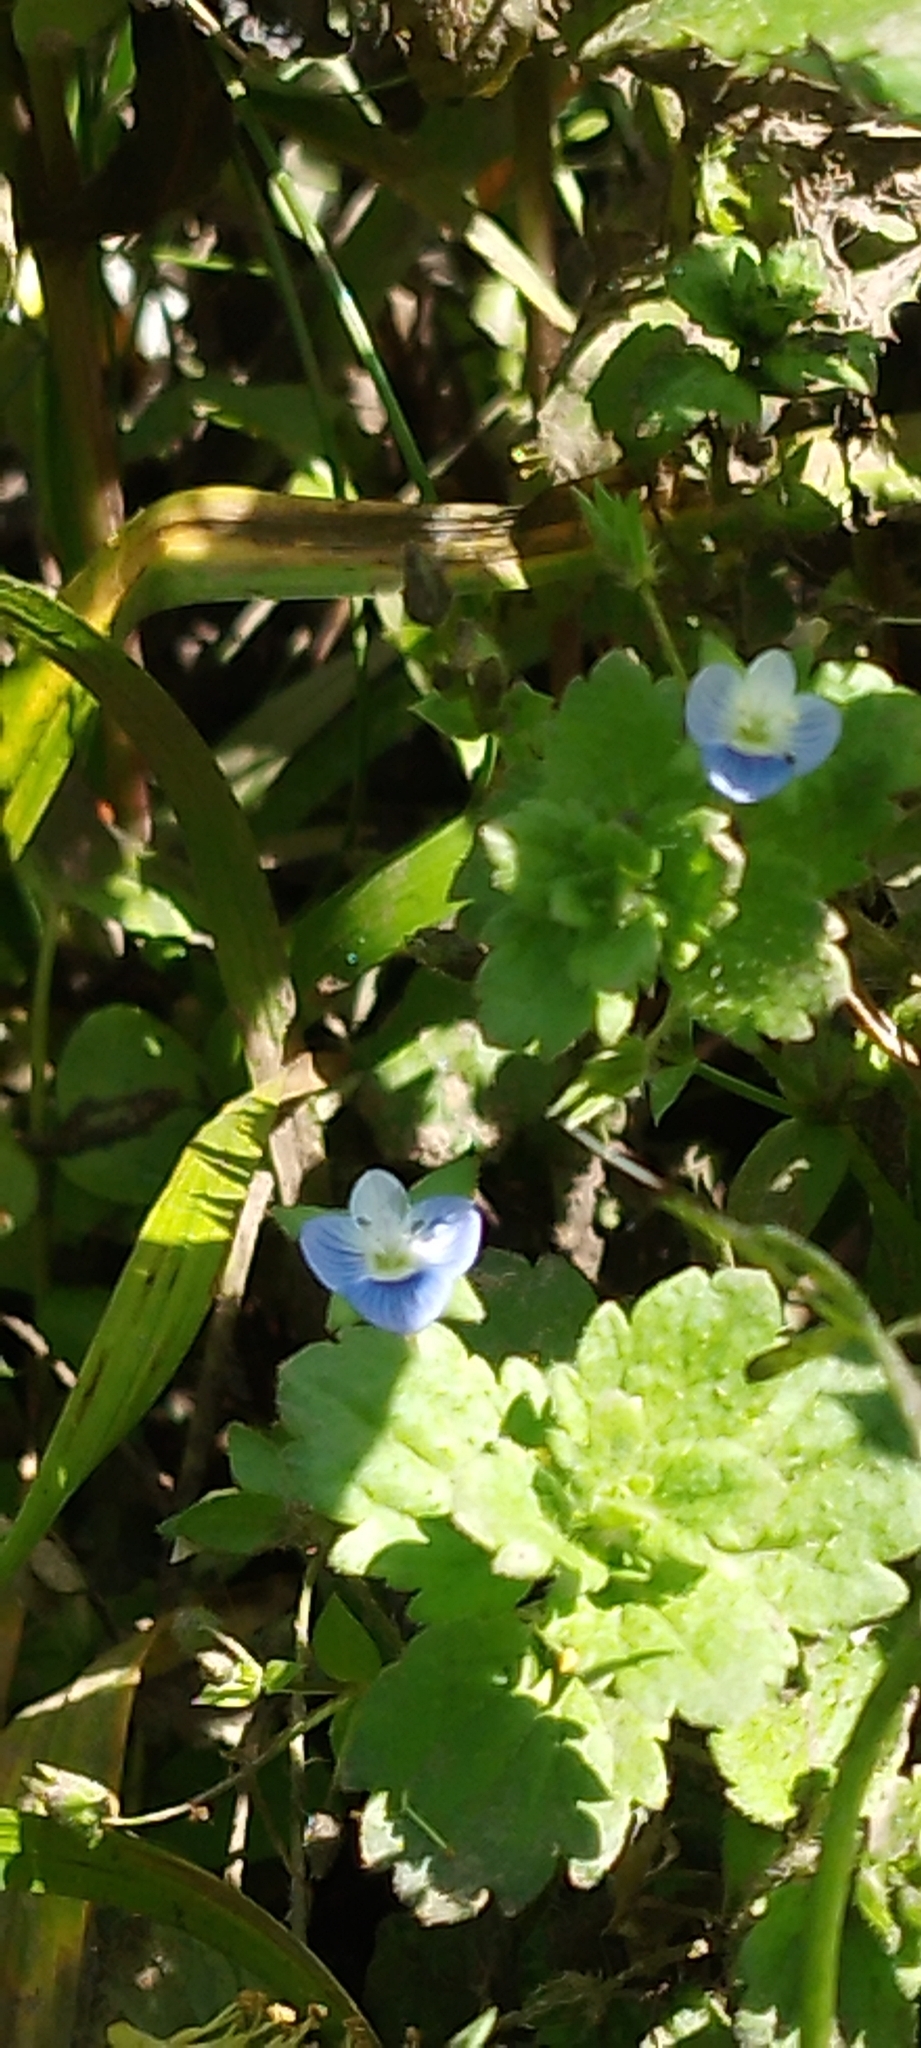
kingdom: Plantae
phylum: Tracheophyta
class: Magnoliopsida
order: Lamiales
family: Plantaginaceae
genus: Veronica
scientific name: Veronica persica
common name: Common field-speedwell
